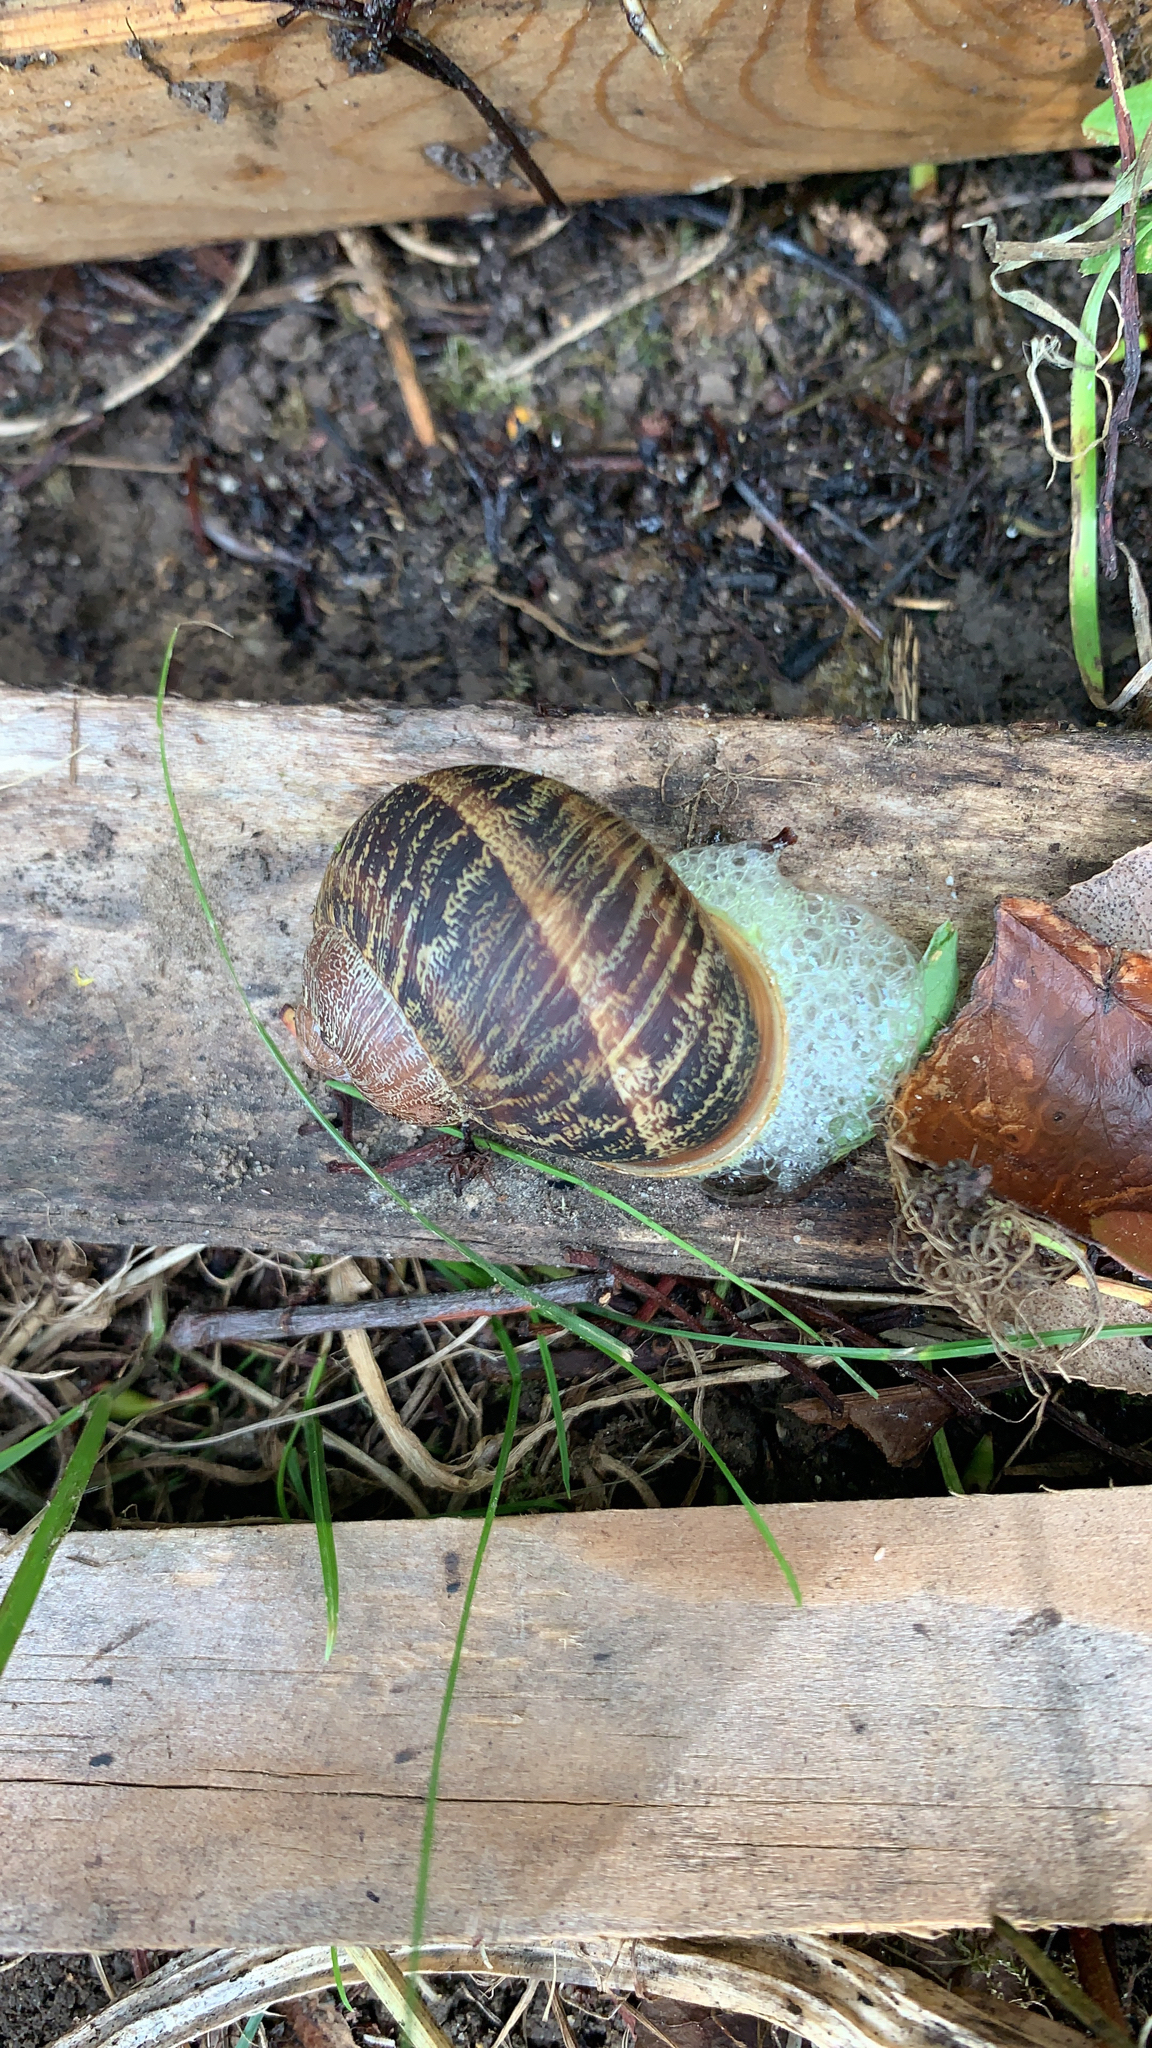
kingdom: Animalia
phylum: Mollusca
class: Gastropoda
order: Stylommatophora
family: Helicidae
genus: Cornu
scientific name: Cornu aspersum
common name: Brown garden snail
